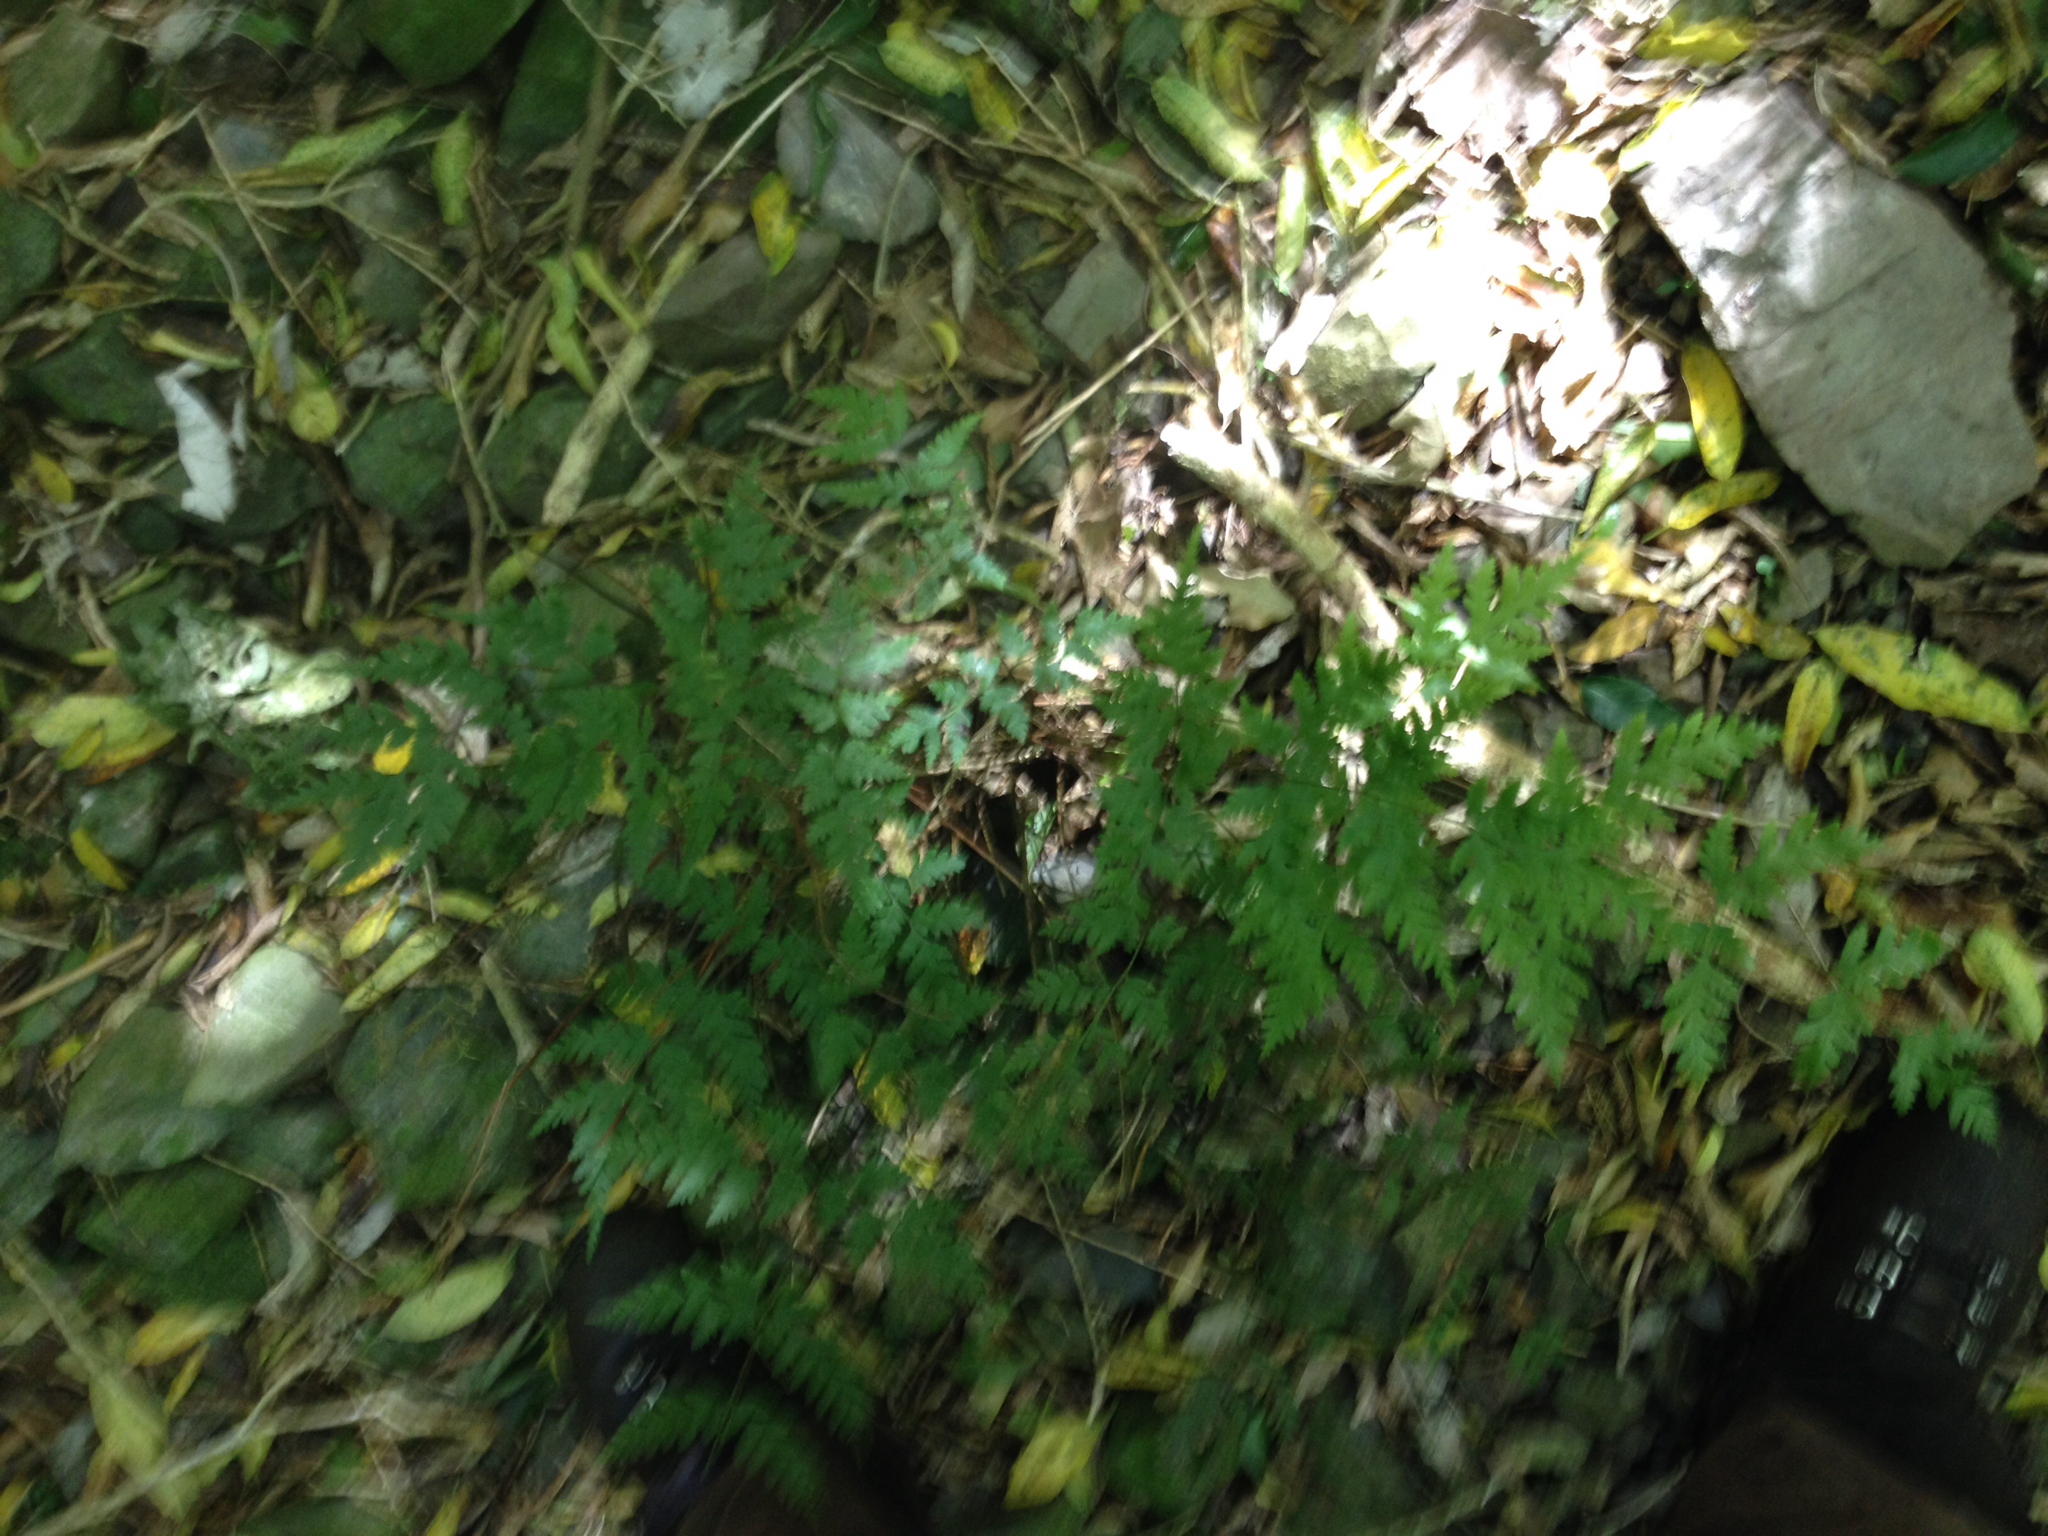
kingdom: Plantae
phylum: Tracheophyta
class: Polypodiopsida
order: Polypodiales
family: Pteridaceae
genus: Pteris
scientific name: Pteris macilenta
